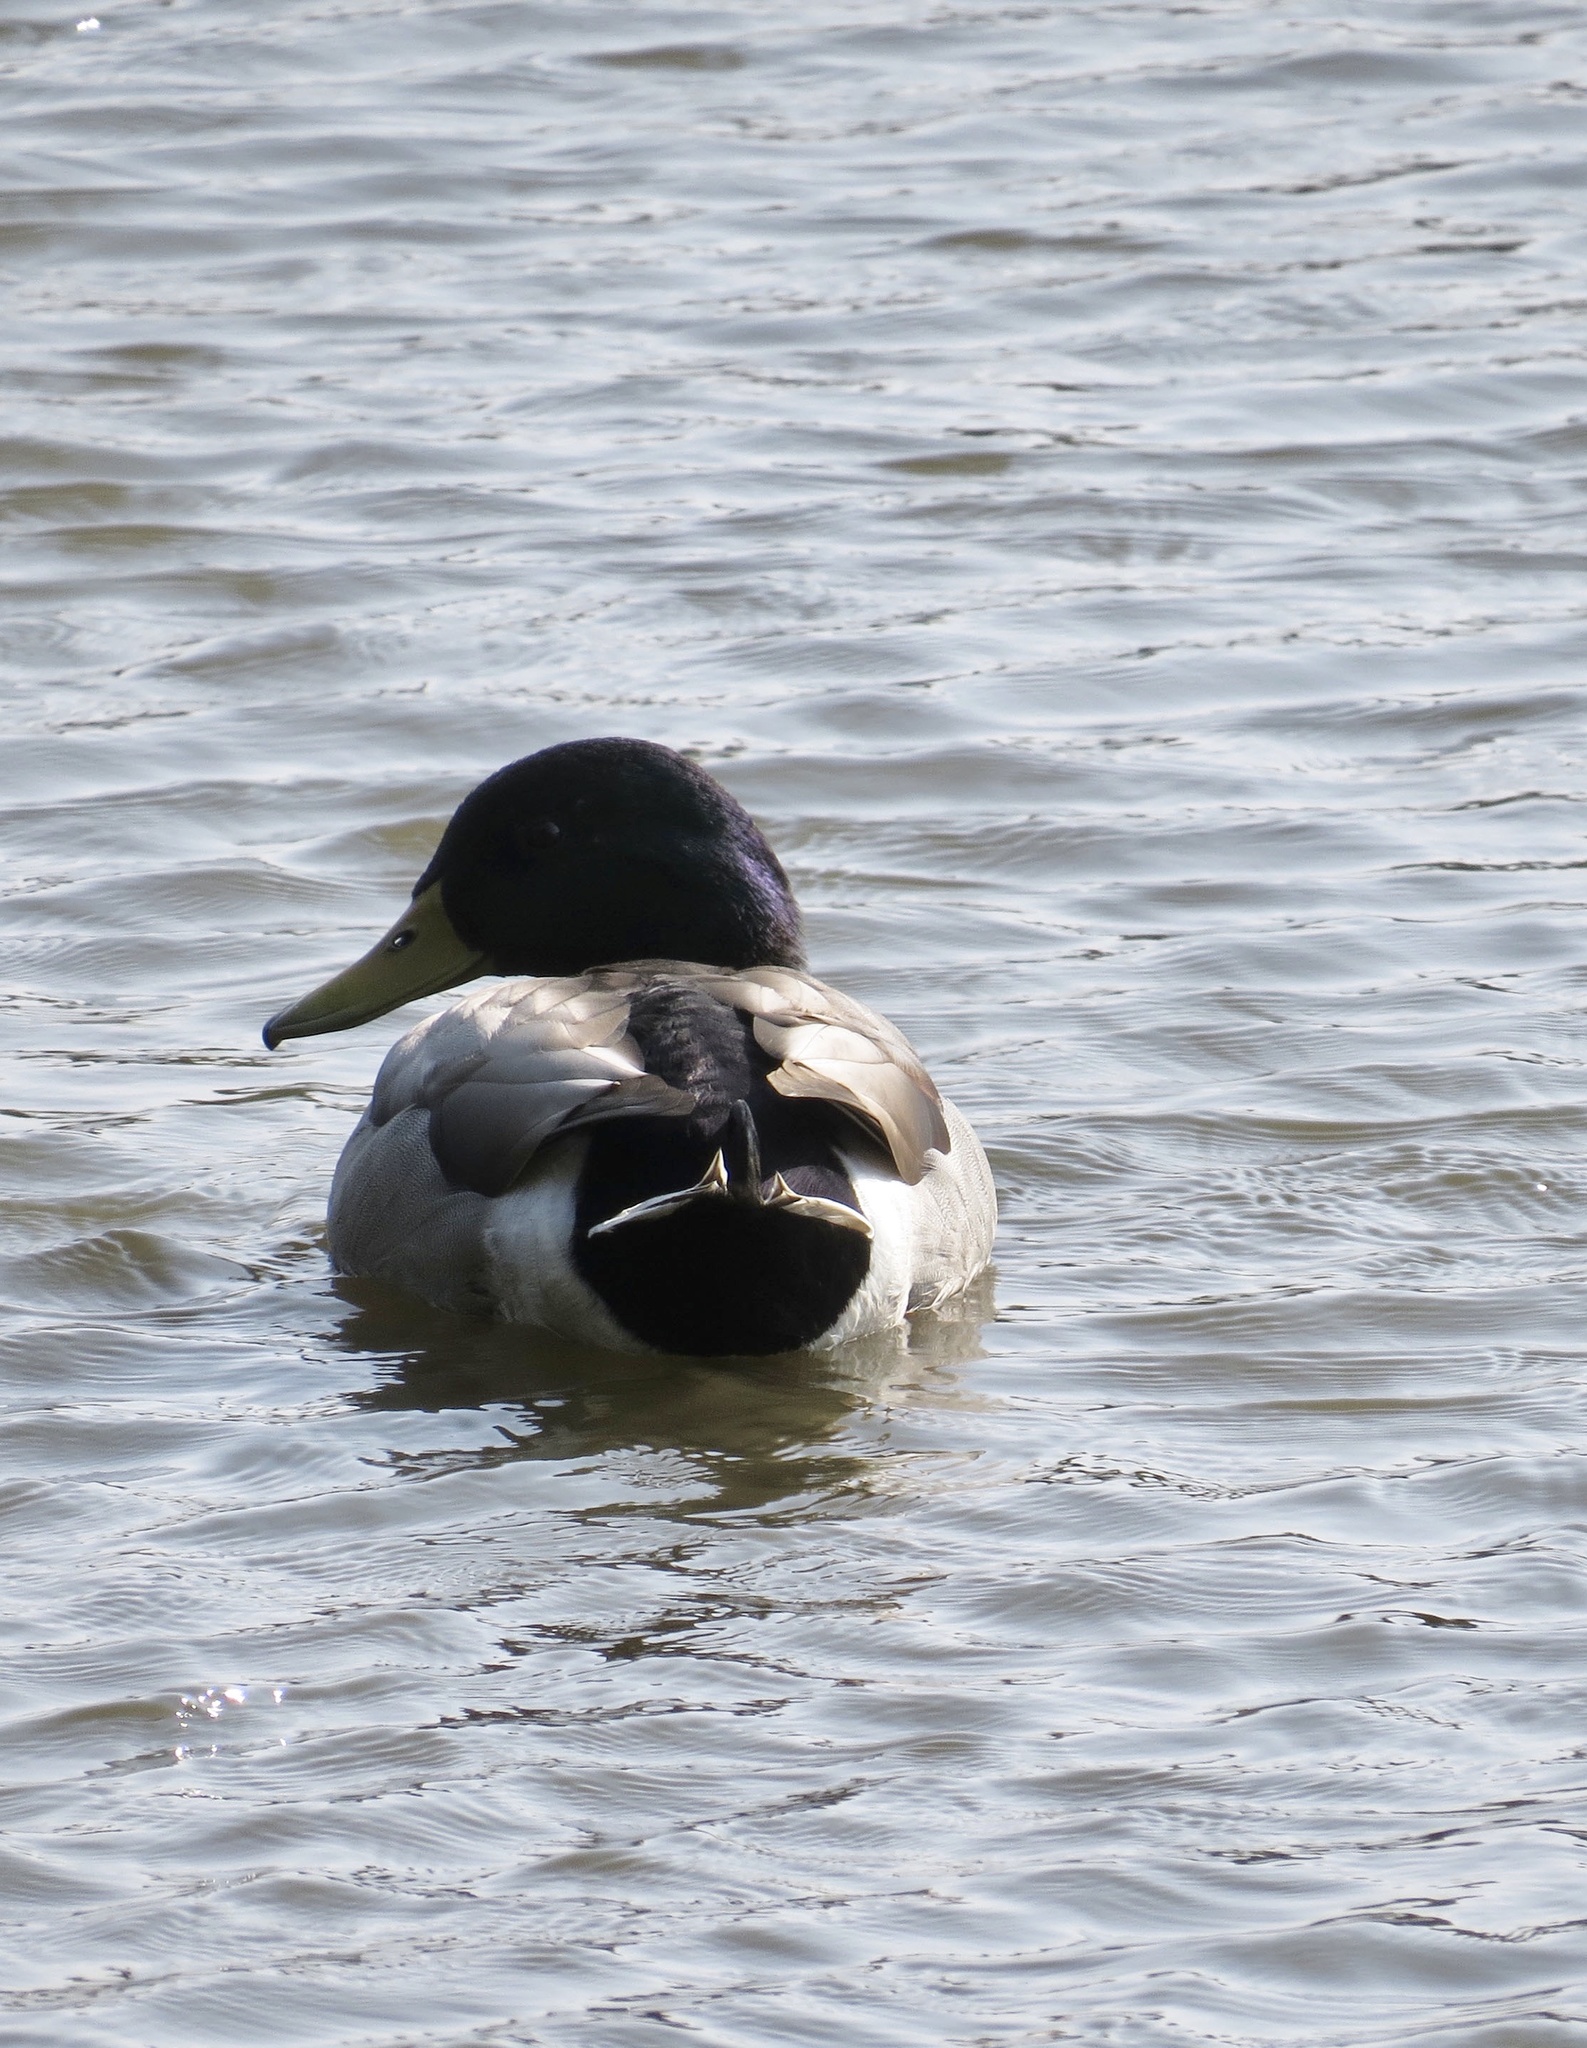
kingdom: Animalia
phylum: Chordata
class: Aves
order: Anseriformes
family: Anatidae
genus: Anas
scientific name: Anas platyrhynchos
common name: Mallard
